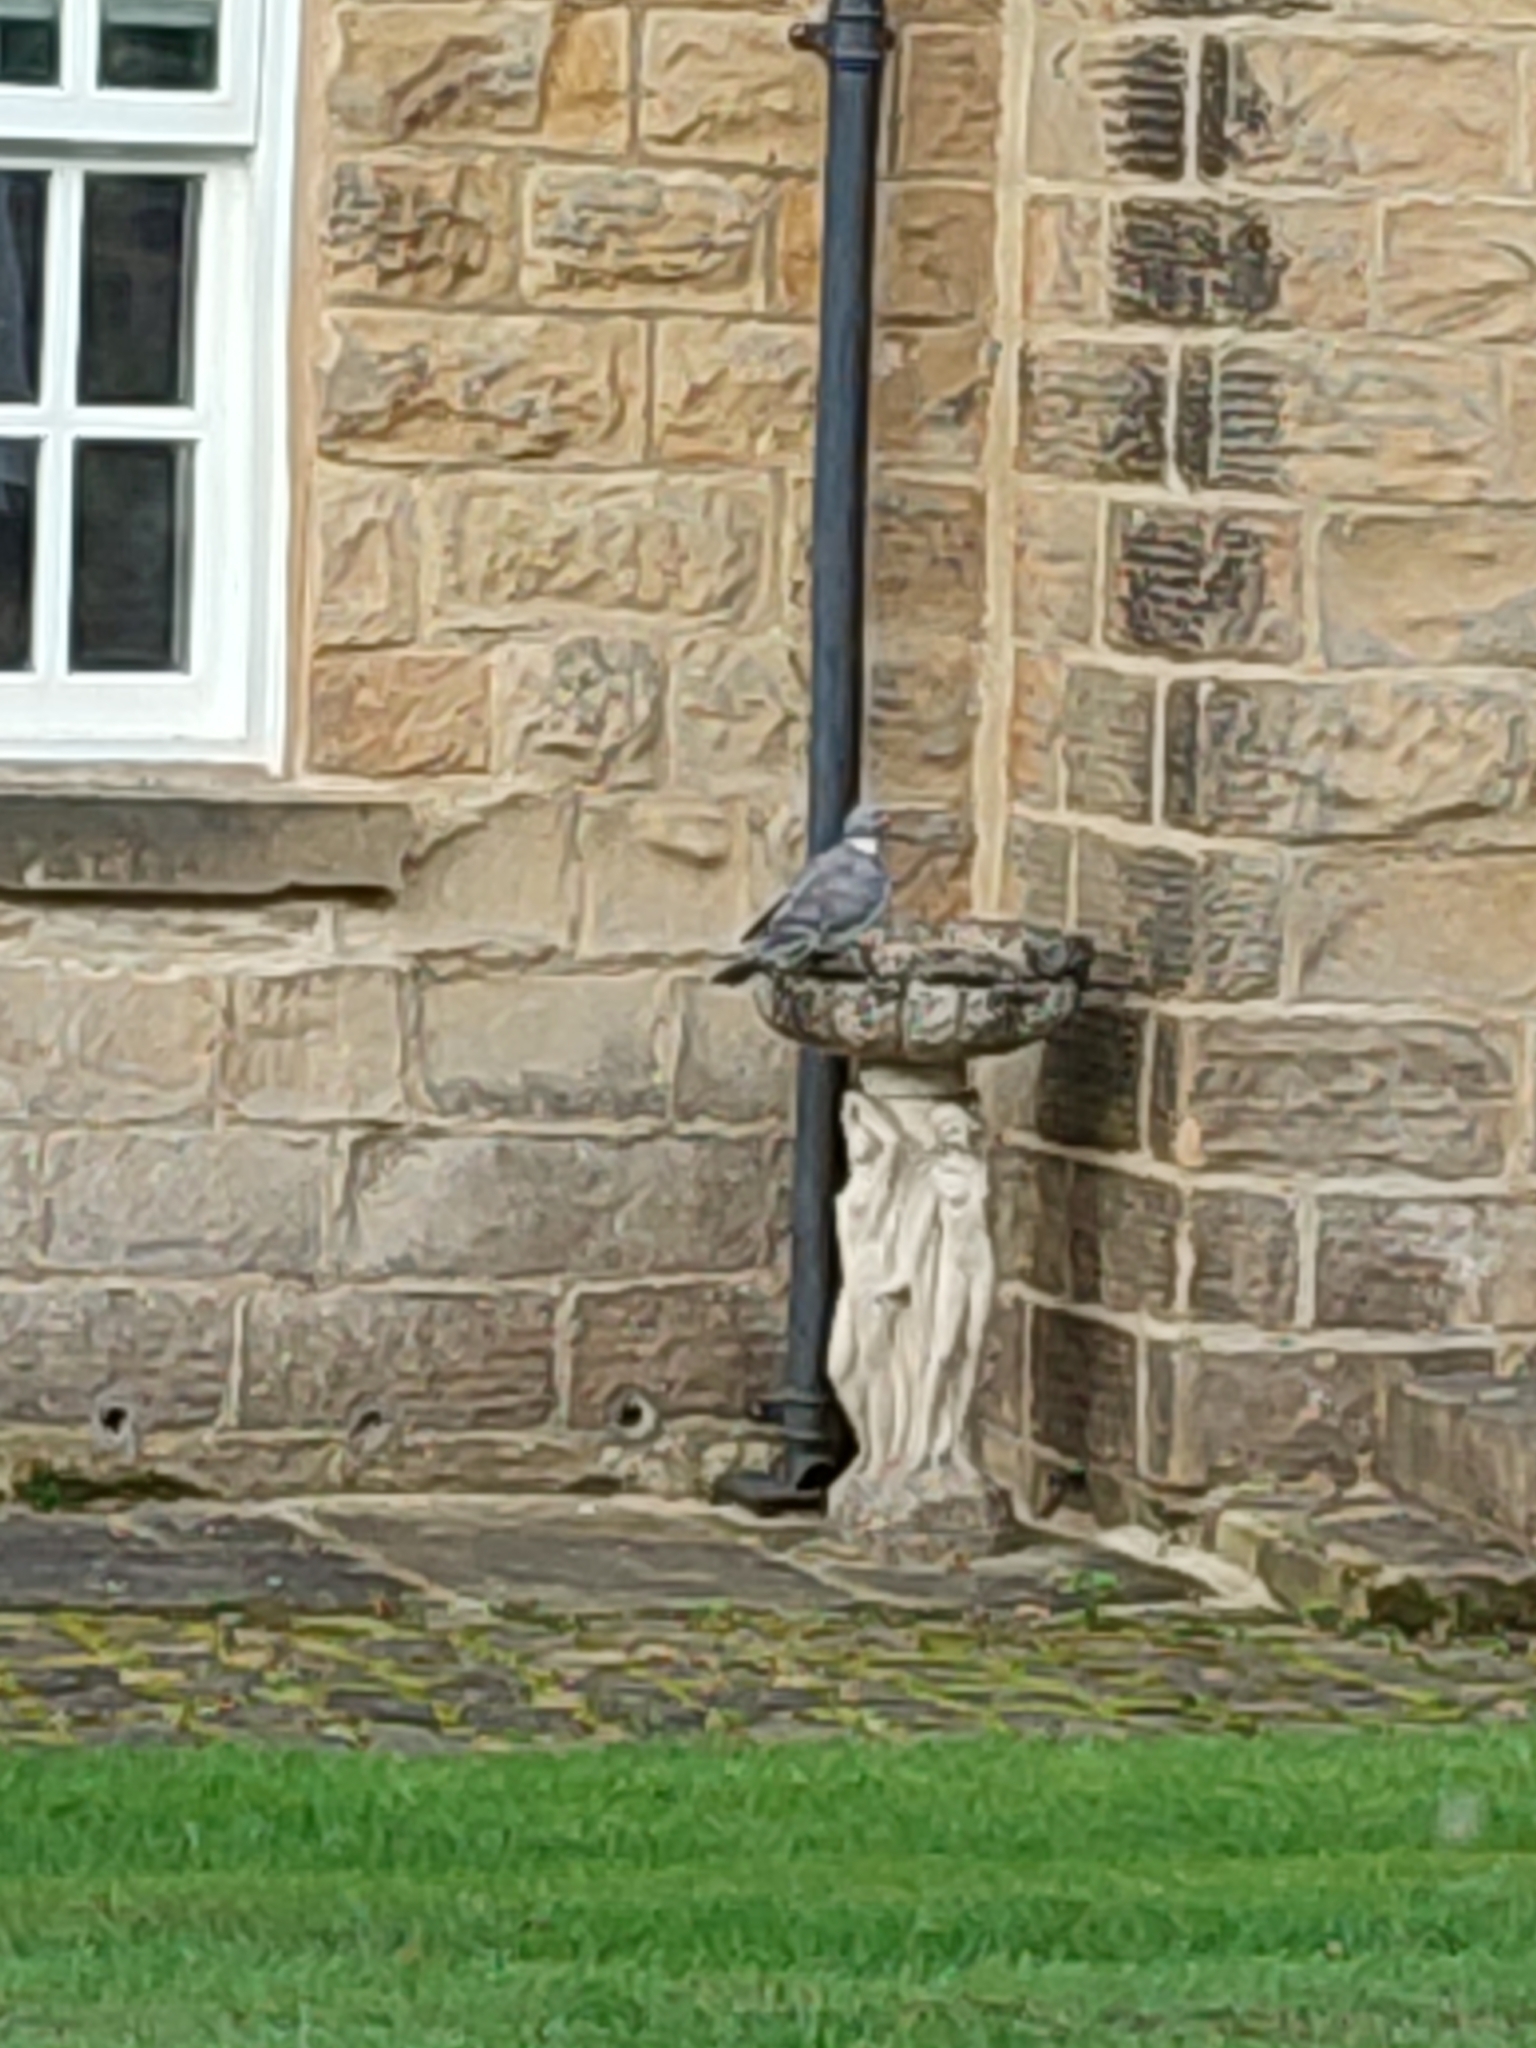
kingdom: Animalia
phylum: Chordata
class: Aves
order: Columbiformes
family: Columbidae
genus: Columba
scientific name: Columba palumbus
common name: Common wood pigeon
